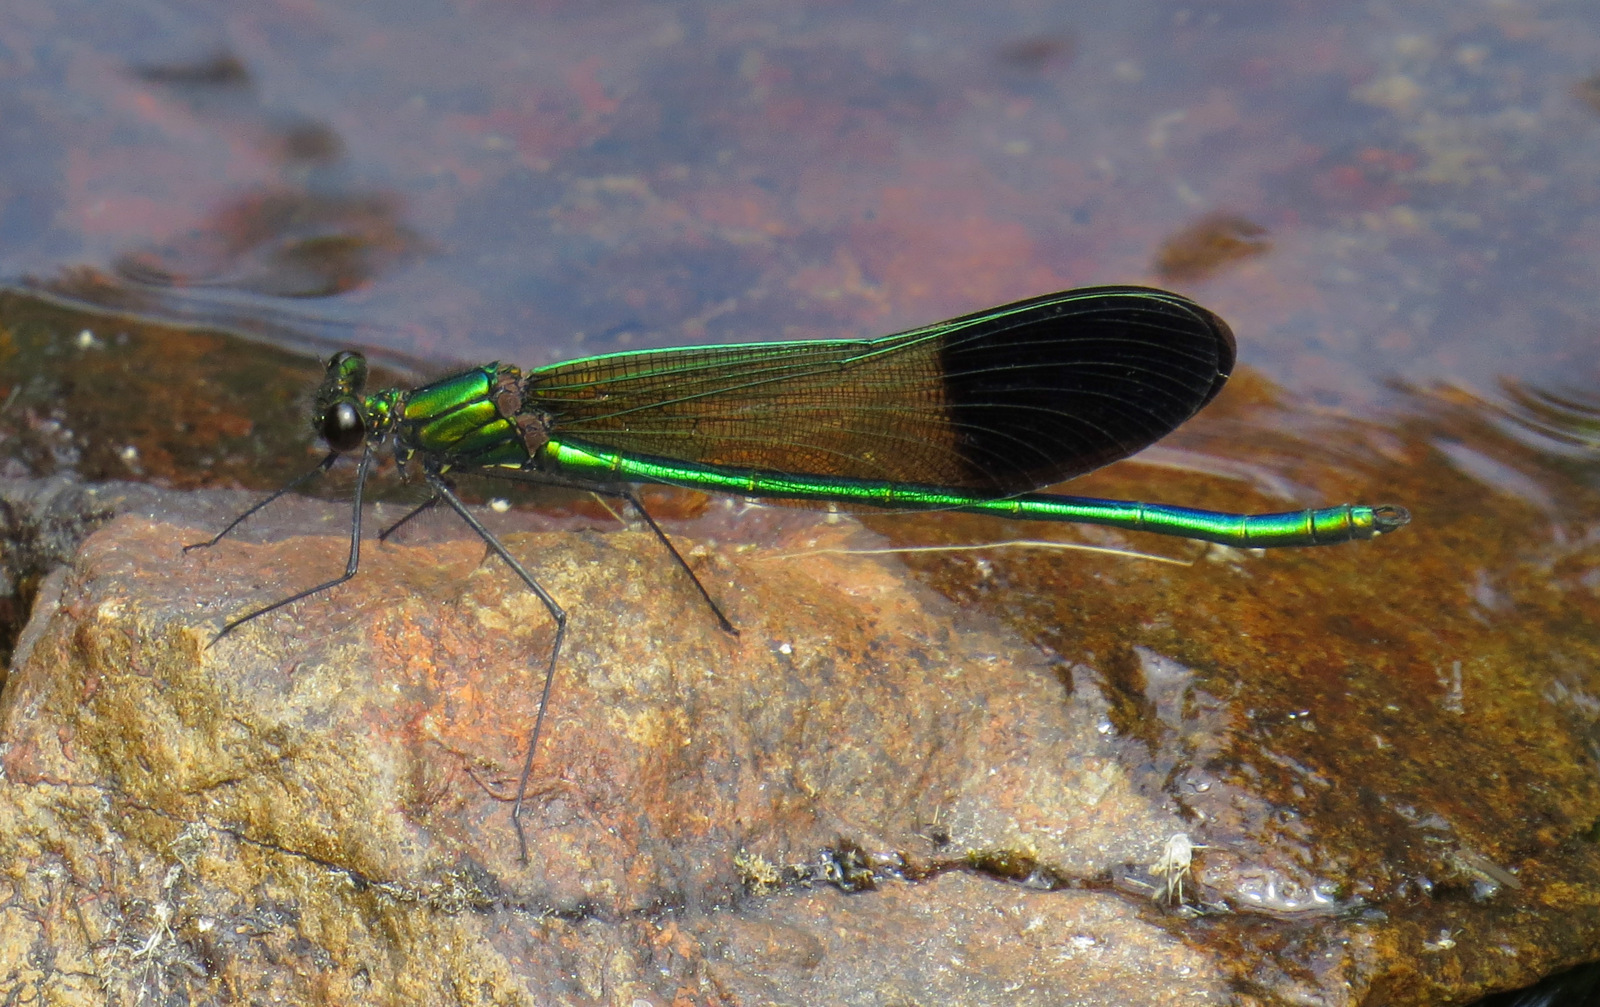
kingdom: Animalia
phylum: Arthropoda
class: Insecta
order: Odonata
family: Calopterygidae
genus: Calopteryx
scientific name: Calopteryx aequabilis
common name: River jewelwing
